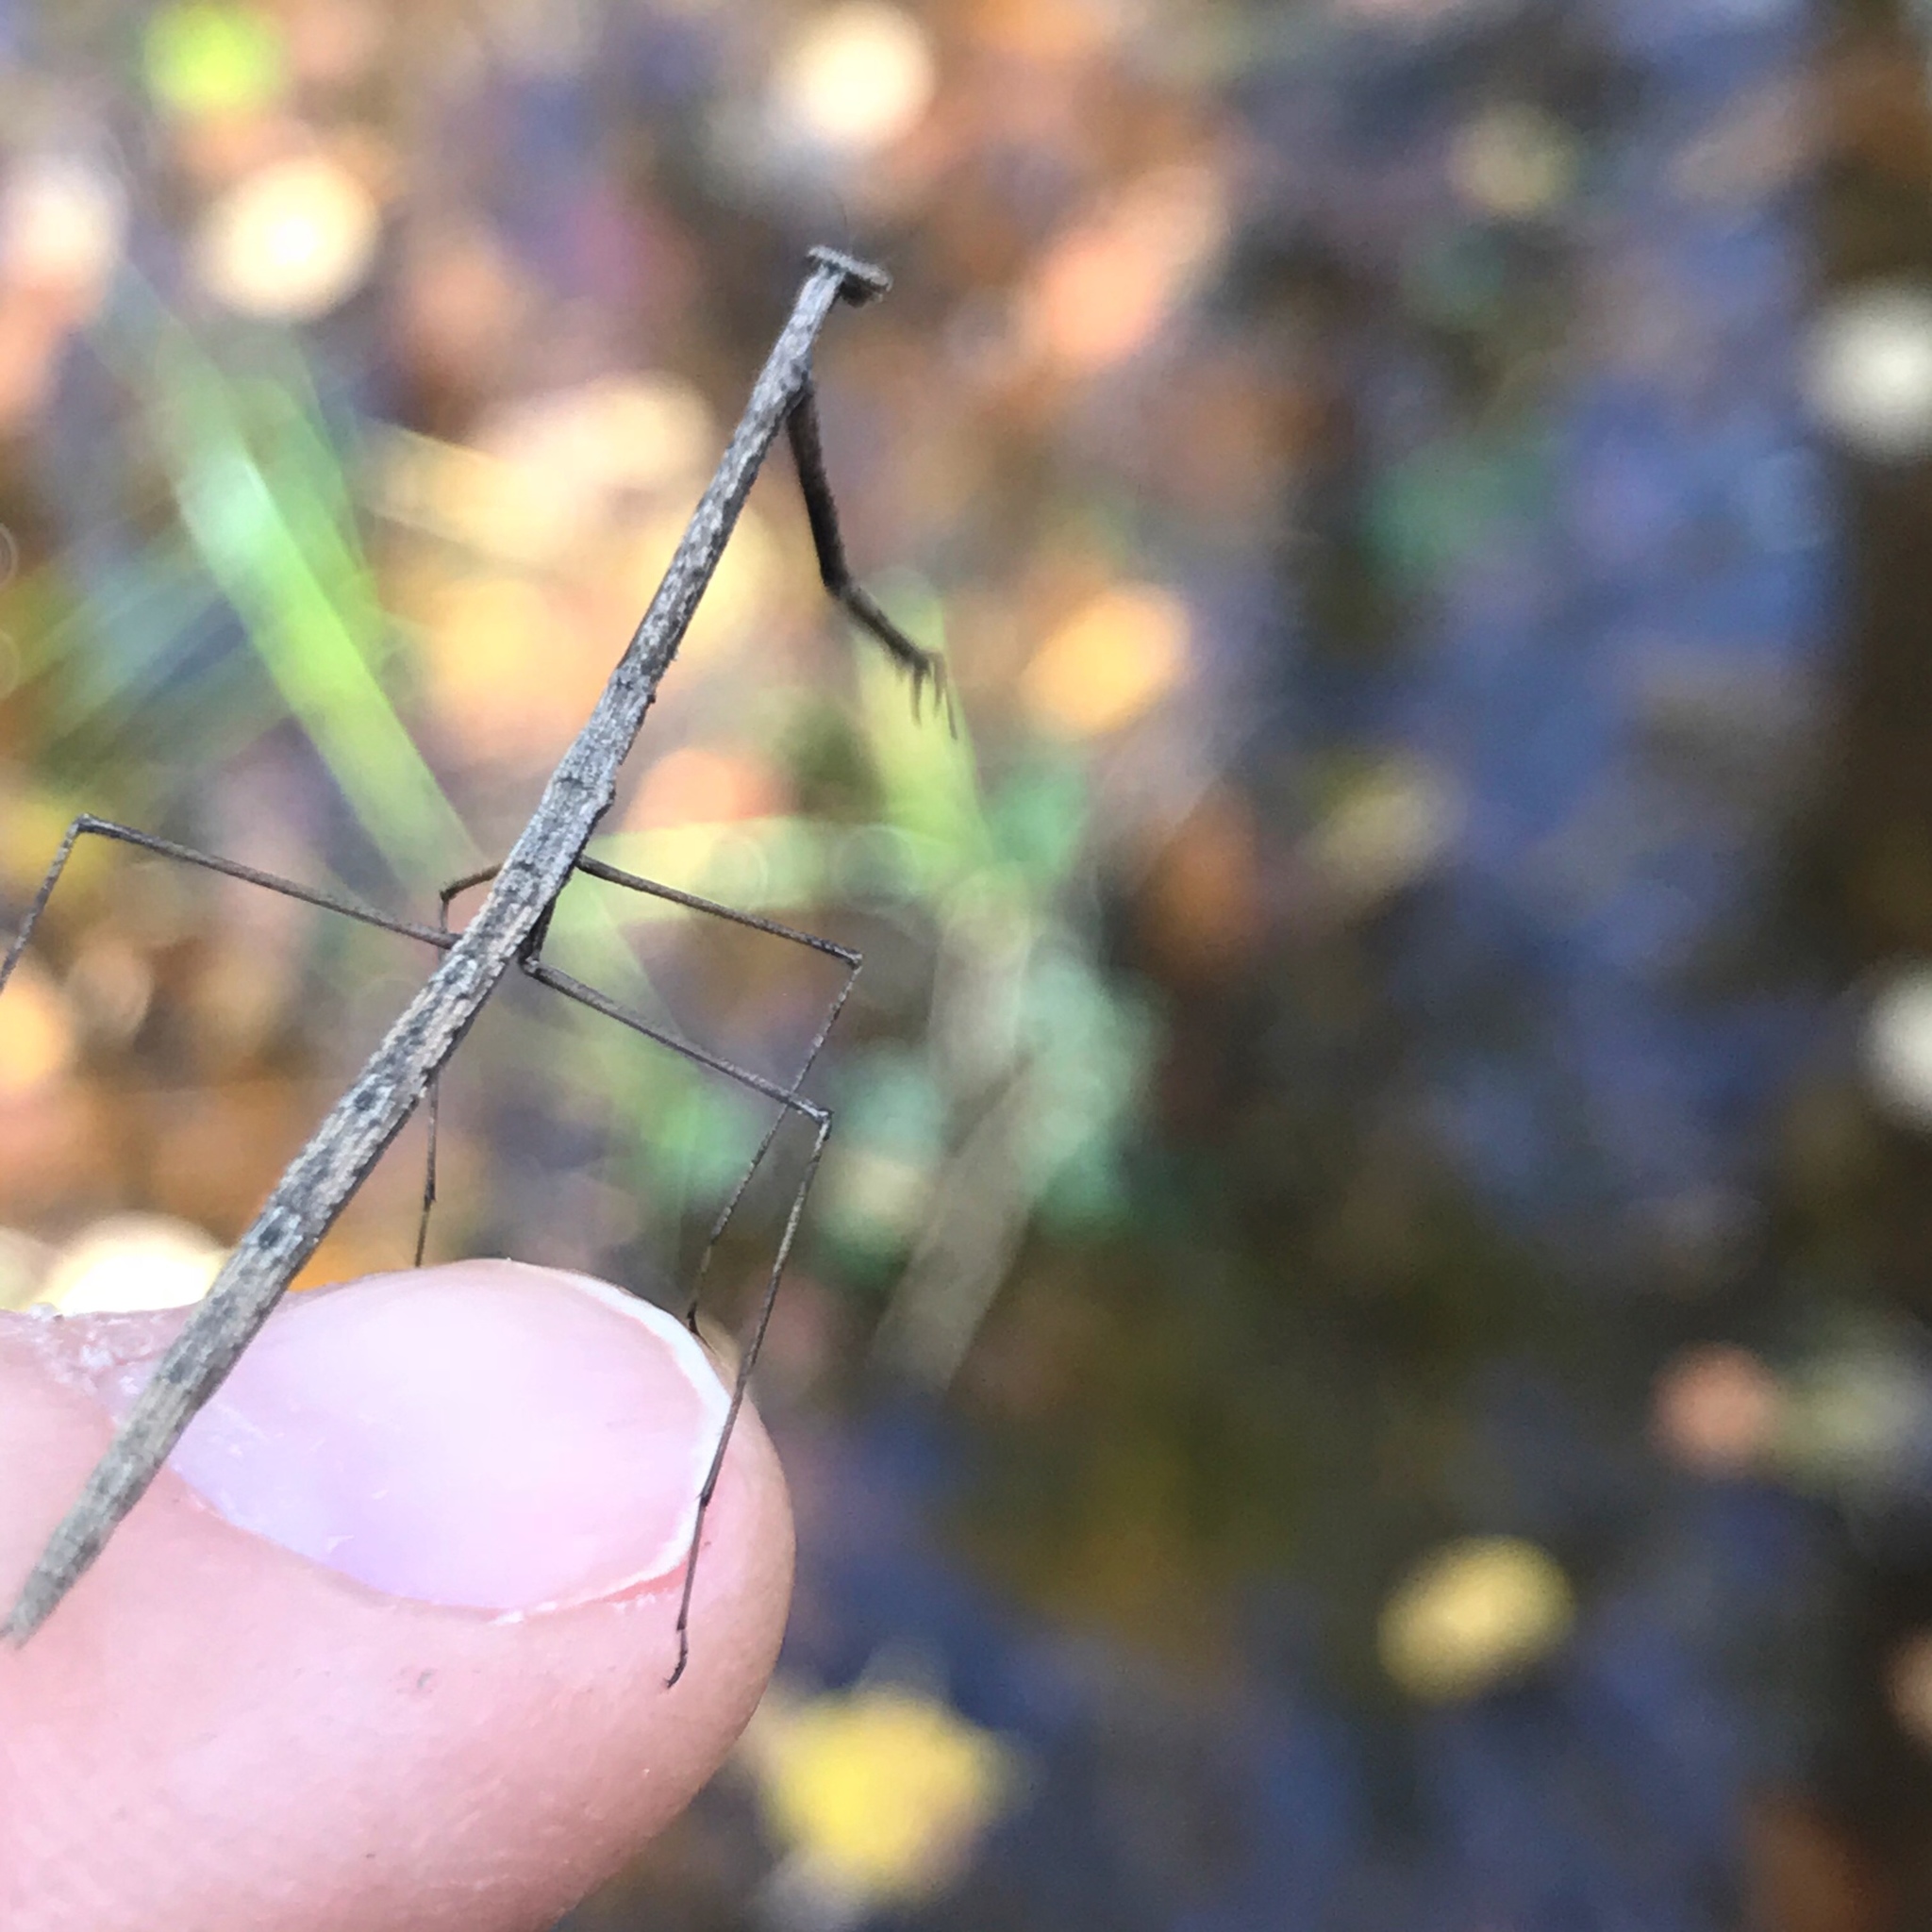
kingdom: Animalia
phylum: Arthropoda
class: Insecta
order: Mantodea
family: Thespidae
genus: Thesprotia
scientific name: Thesprotia graminis
